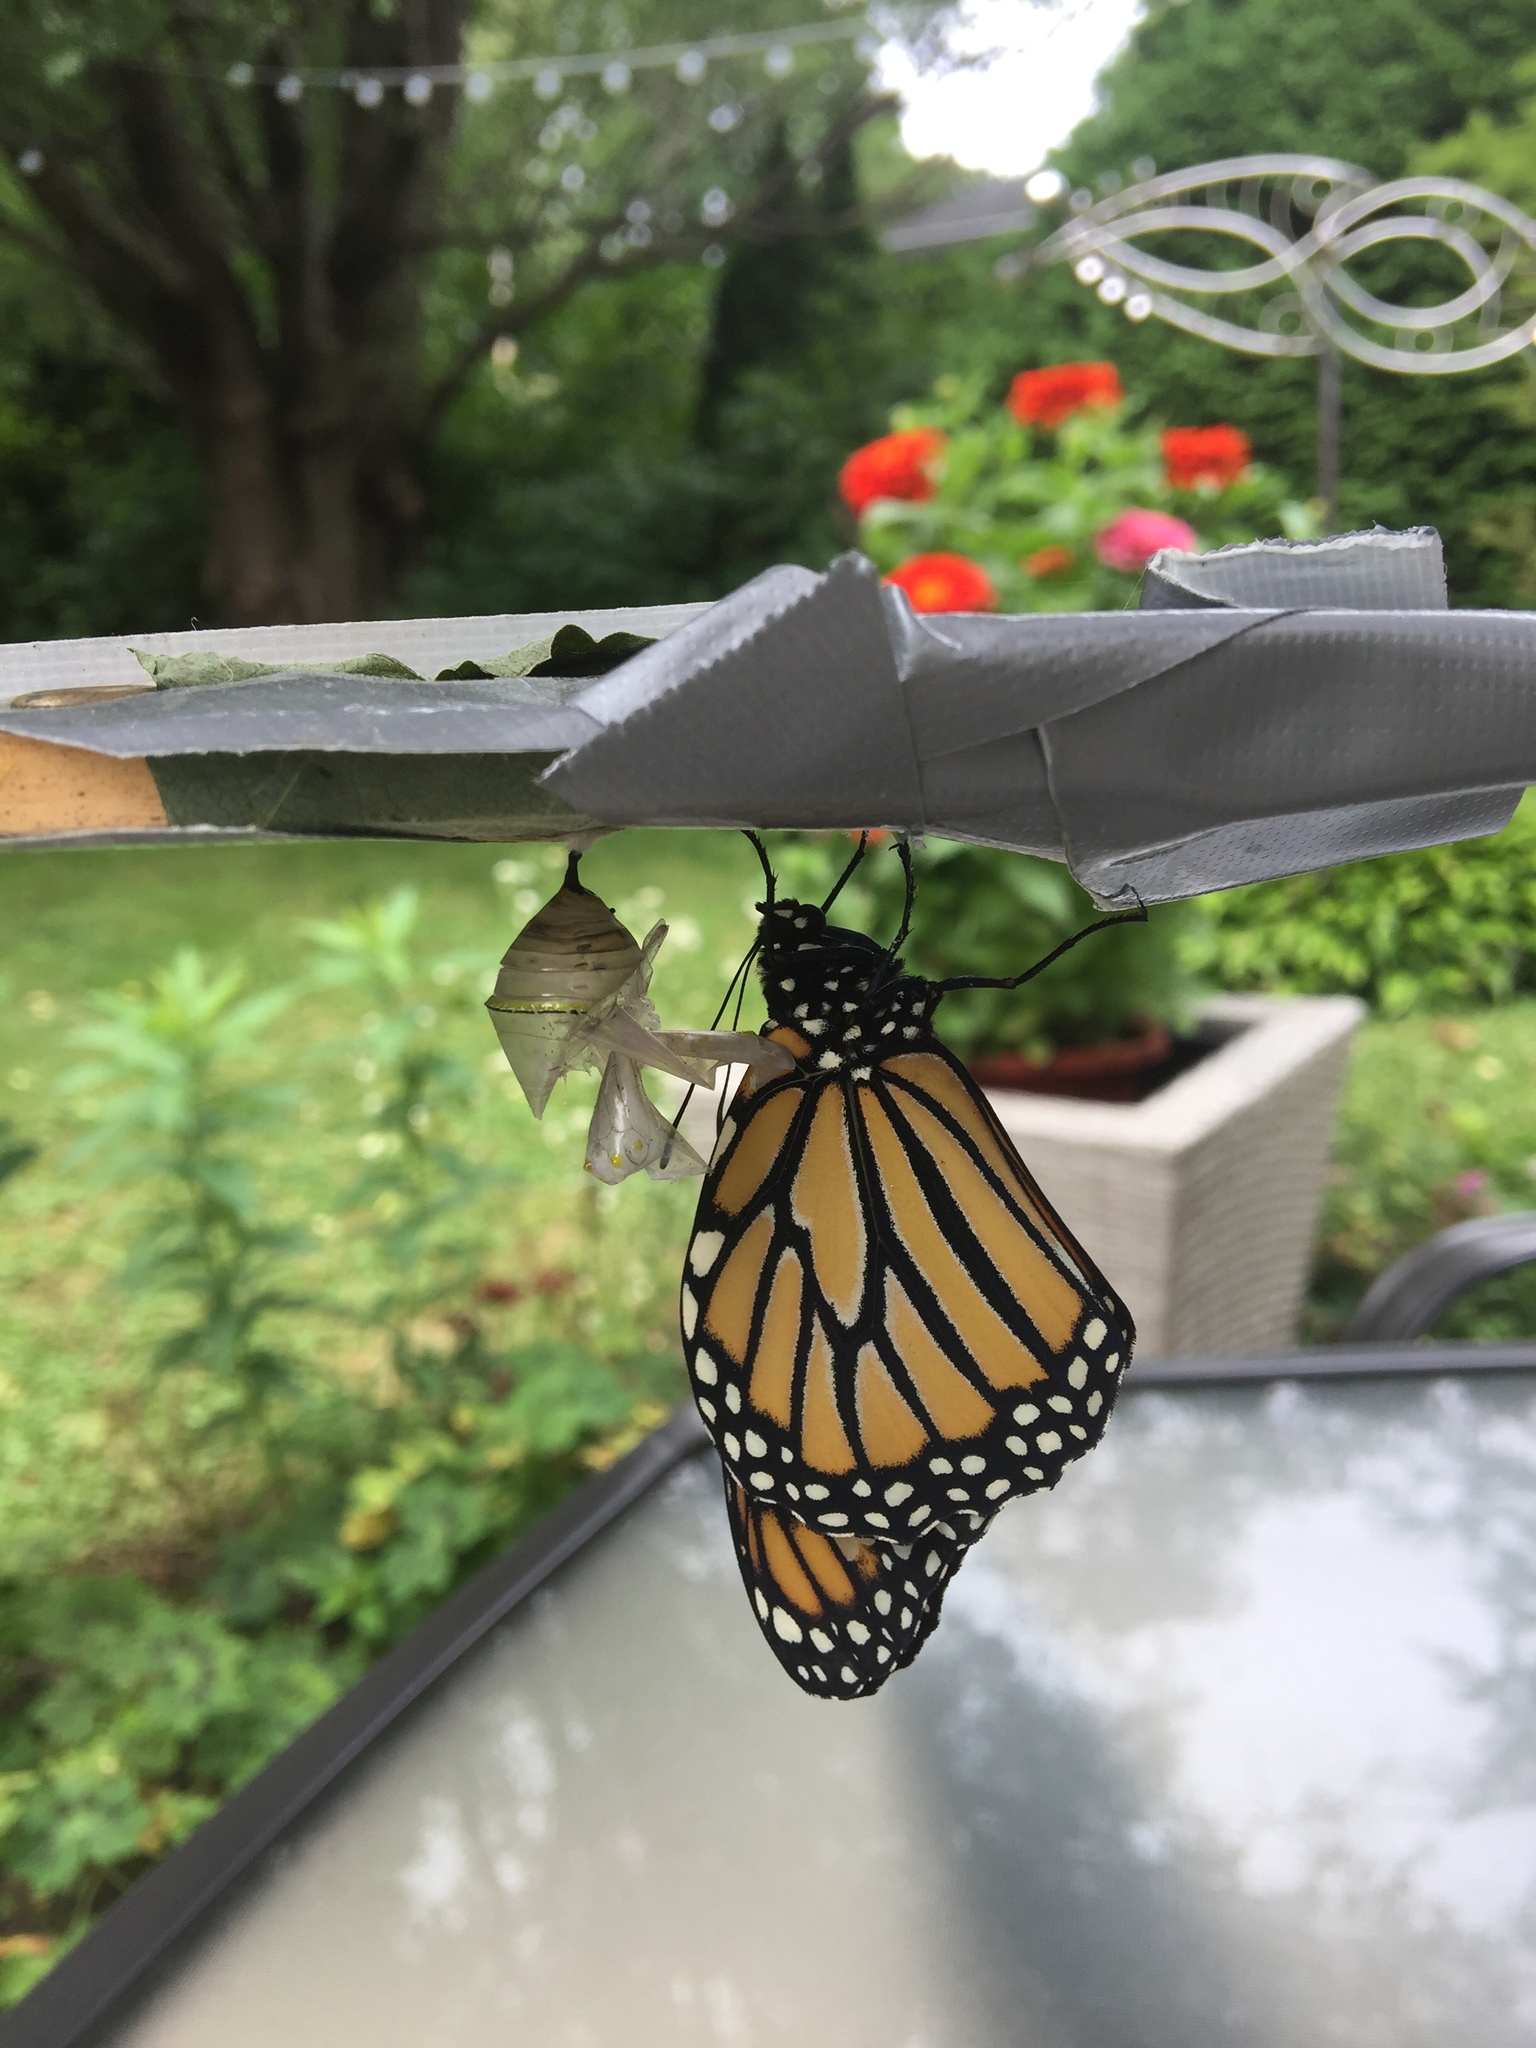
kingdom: Animalia
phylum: Arthropoda
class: Insecta
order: Lepidoptera
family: Nymphalidae
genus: Danaus
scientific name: Danaus plexippus
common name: Monarch
